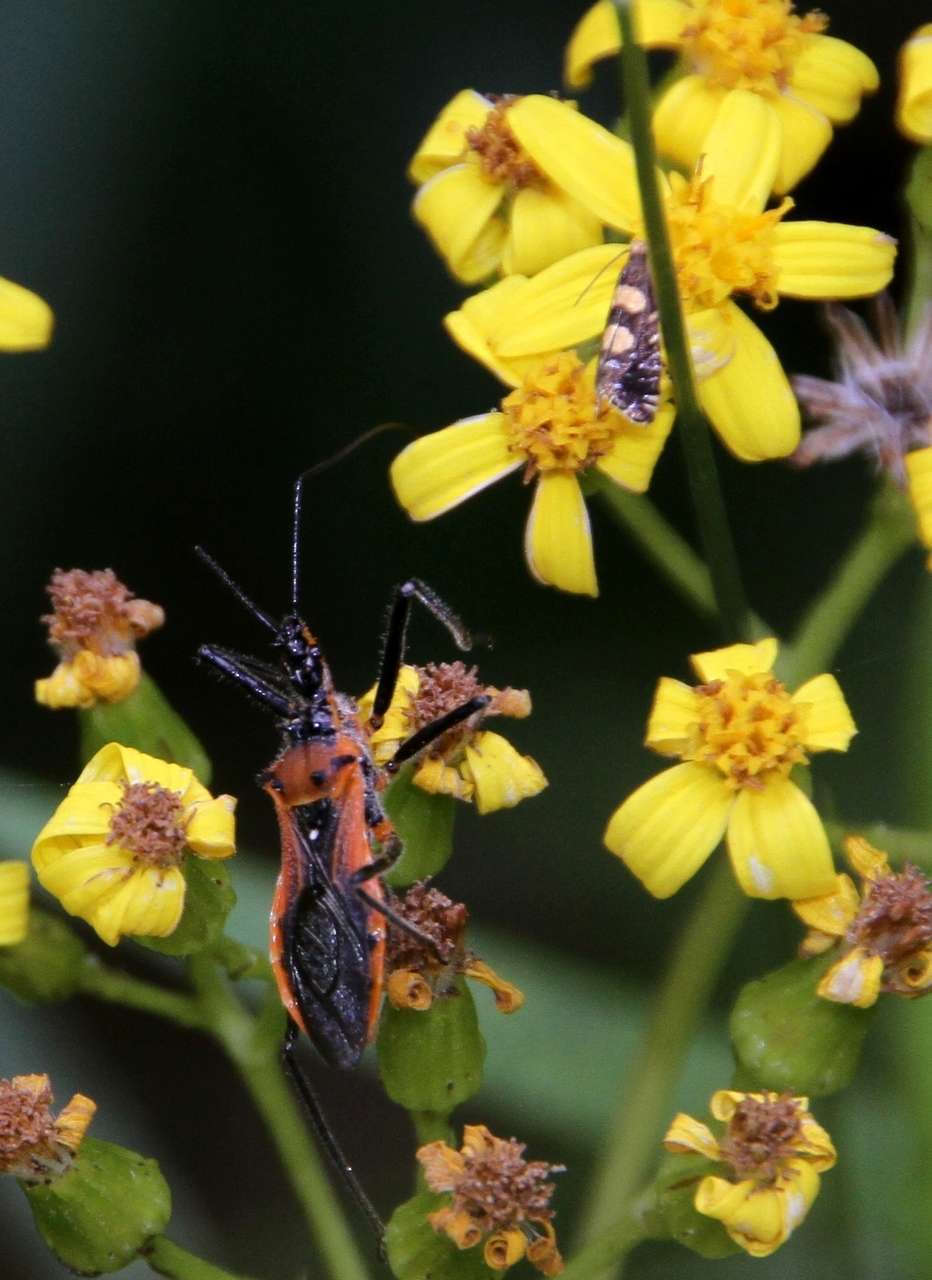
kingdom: Animalia
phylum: Arthropoda
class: Insecta
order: Hemiptera
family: Reduviidae
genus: Gminatus
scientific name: Gminatus australis
